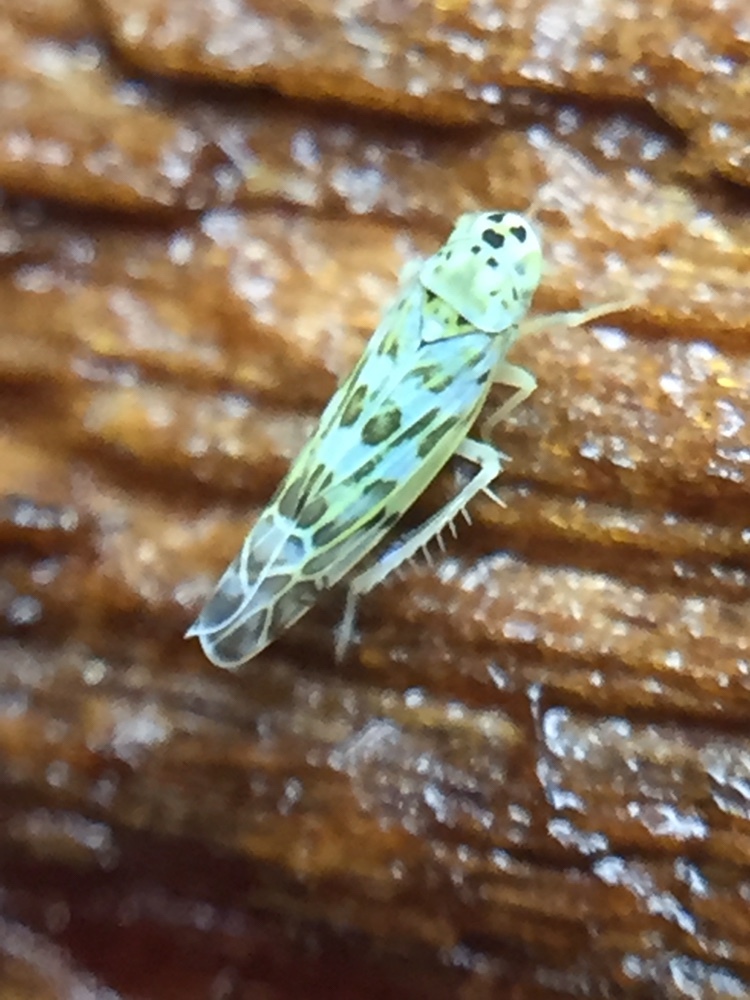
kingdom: Animalia
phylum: Arthropoda
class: Insecta
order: Hemiptera
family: Cicadellidae
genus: Eupteryx
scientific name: Eupteryx melissae
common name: Herb leafhopper
